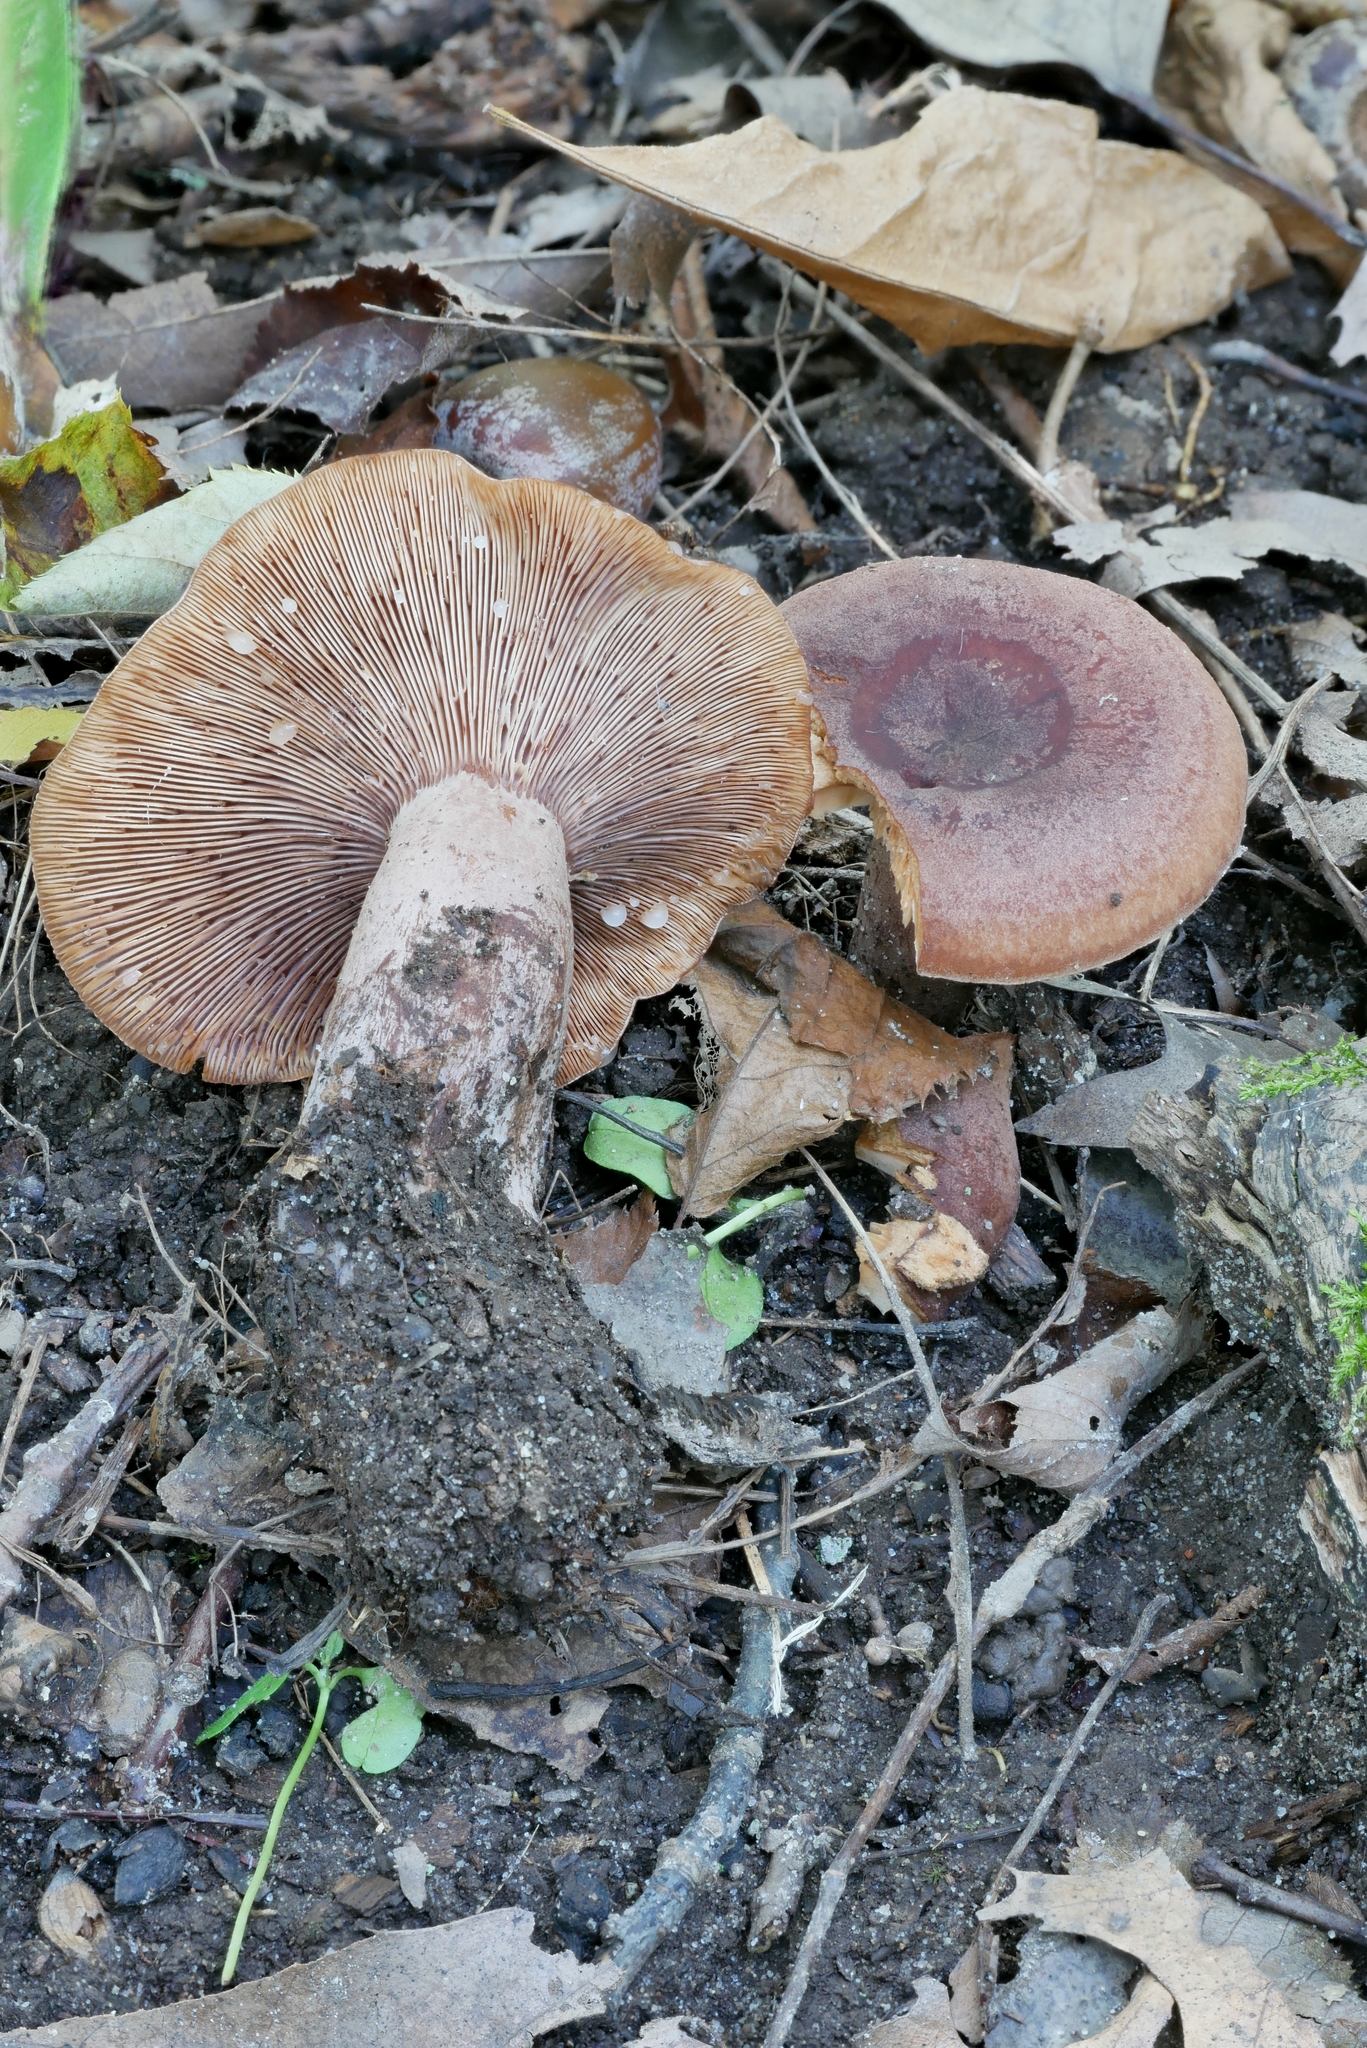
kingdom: Fungi
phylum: Basidiomycota
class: Agaricomycetes
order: Russulales
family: Russulaceae
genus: Lactarius
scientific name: Lactarius mutabilis
